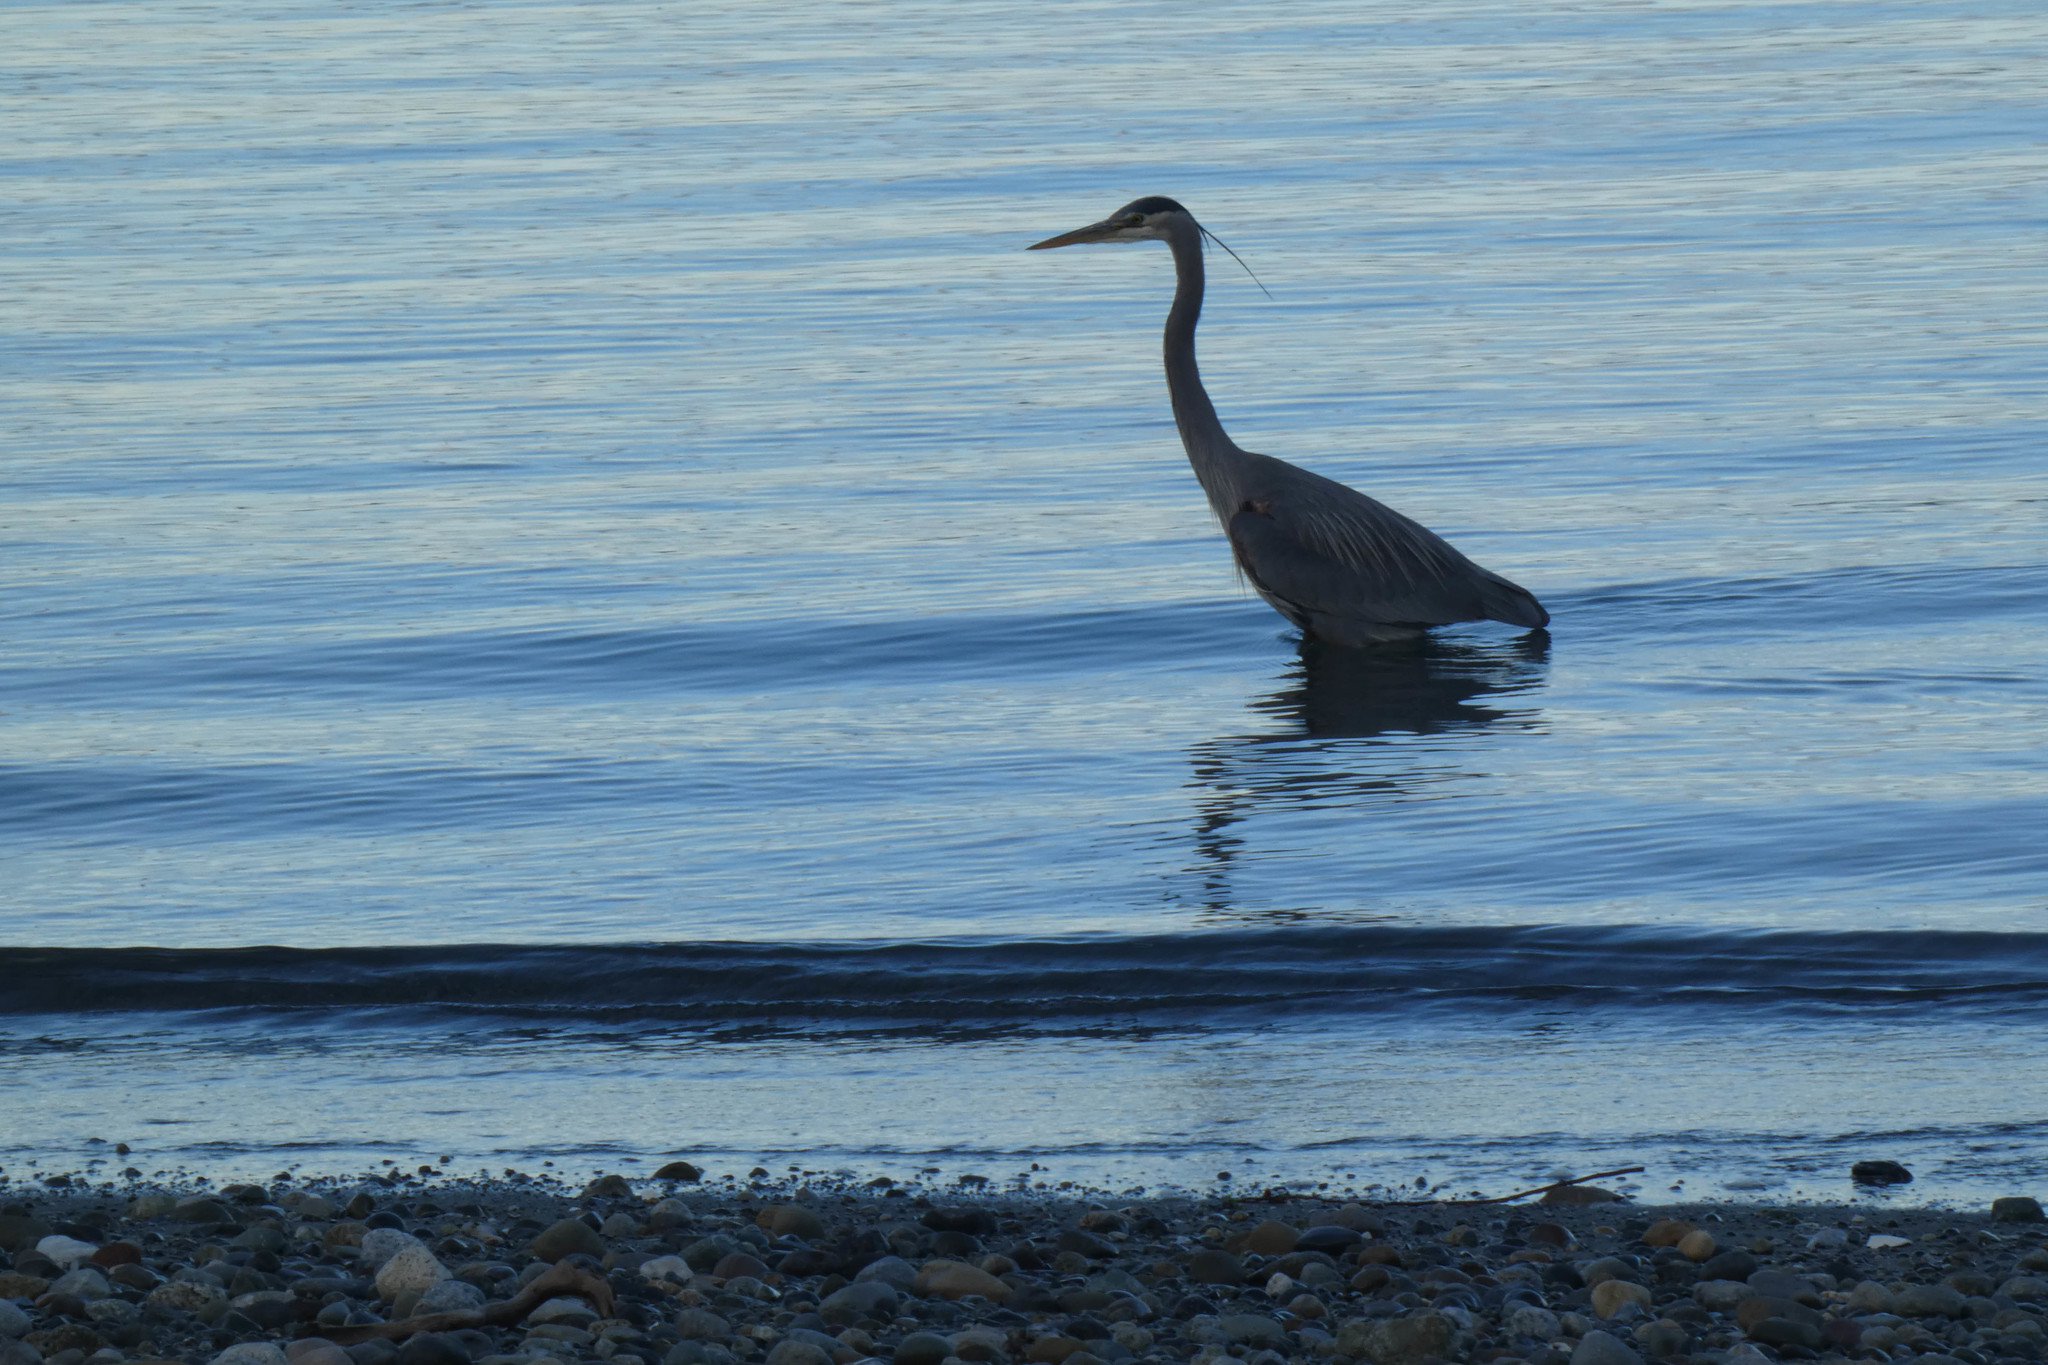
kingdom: Animalia
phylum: Chordata
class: Aves
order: Pelecaniformes
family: Ardeidae
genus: Ardea
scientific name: Ardea herodias
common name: Great blue heron
